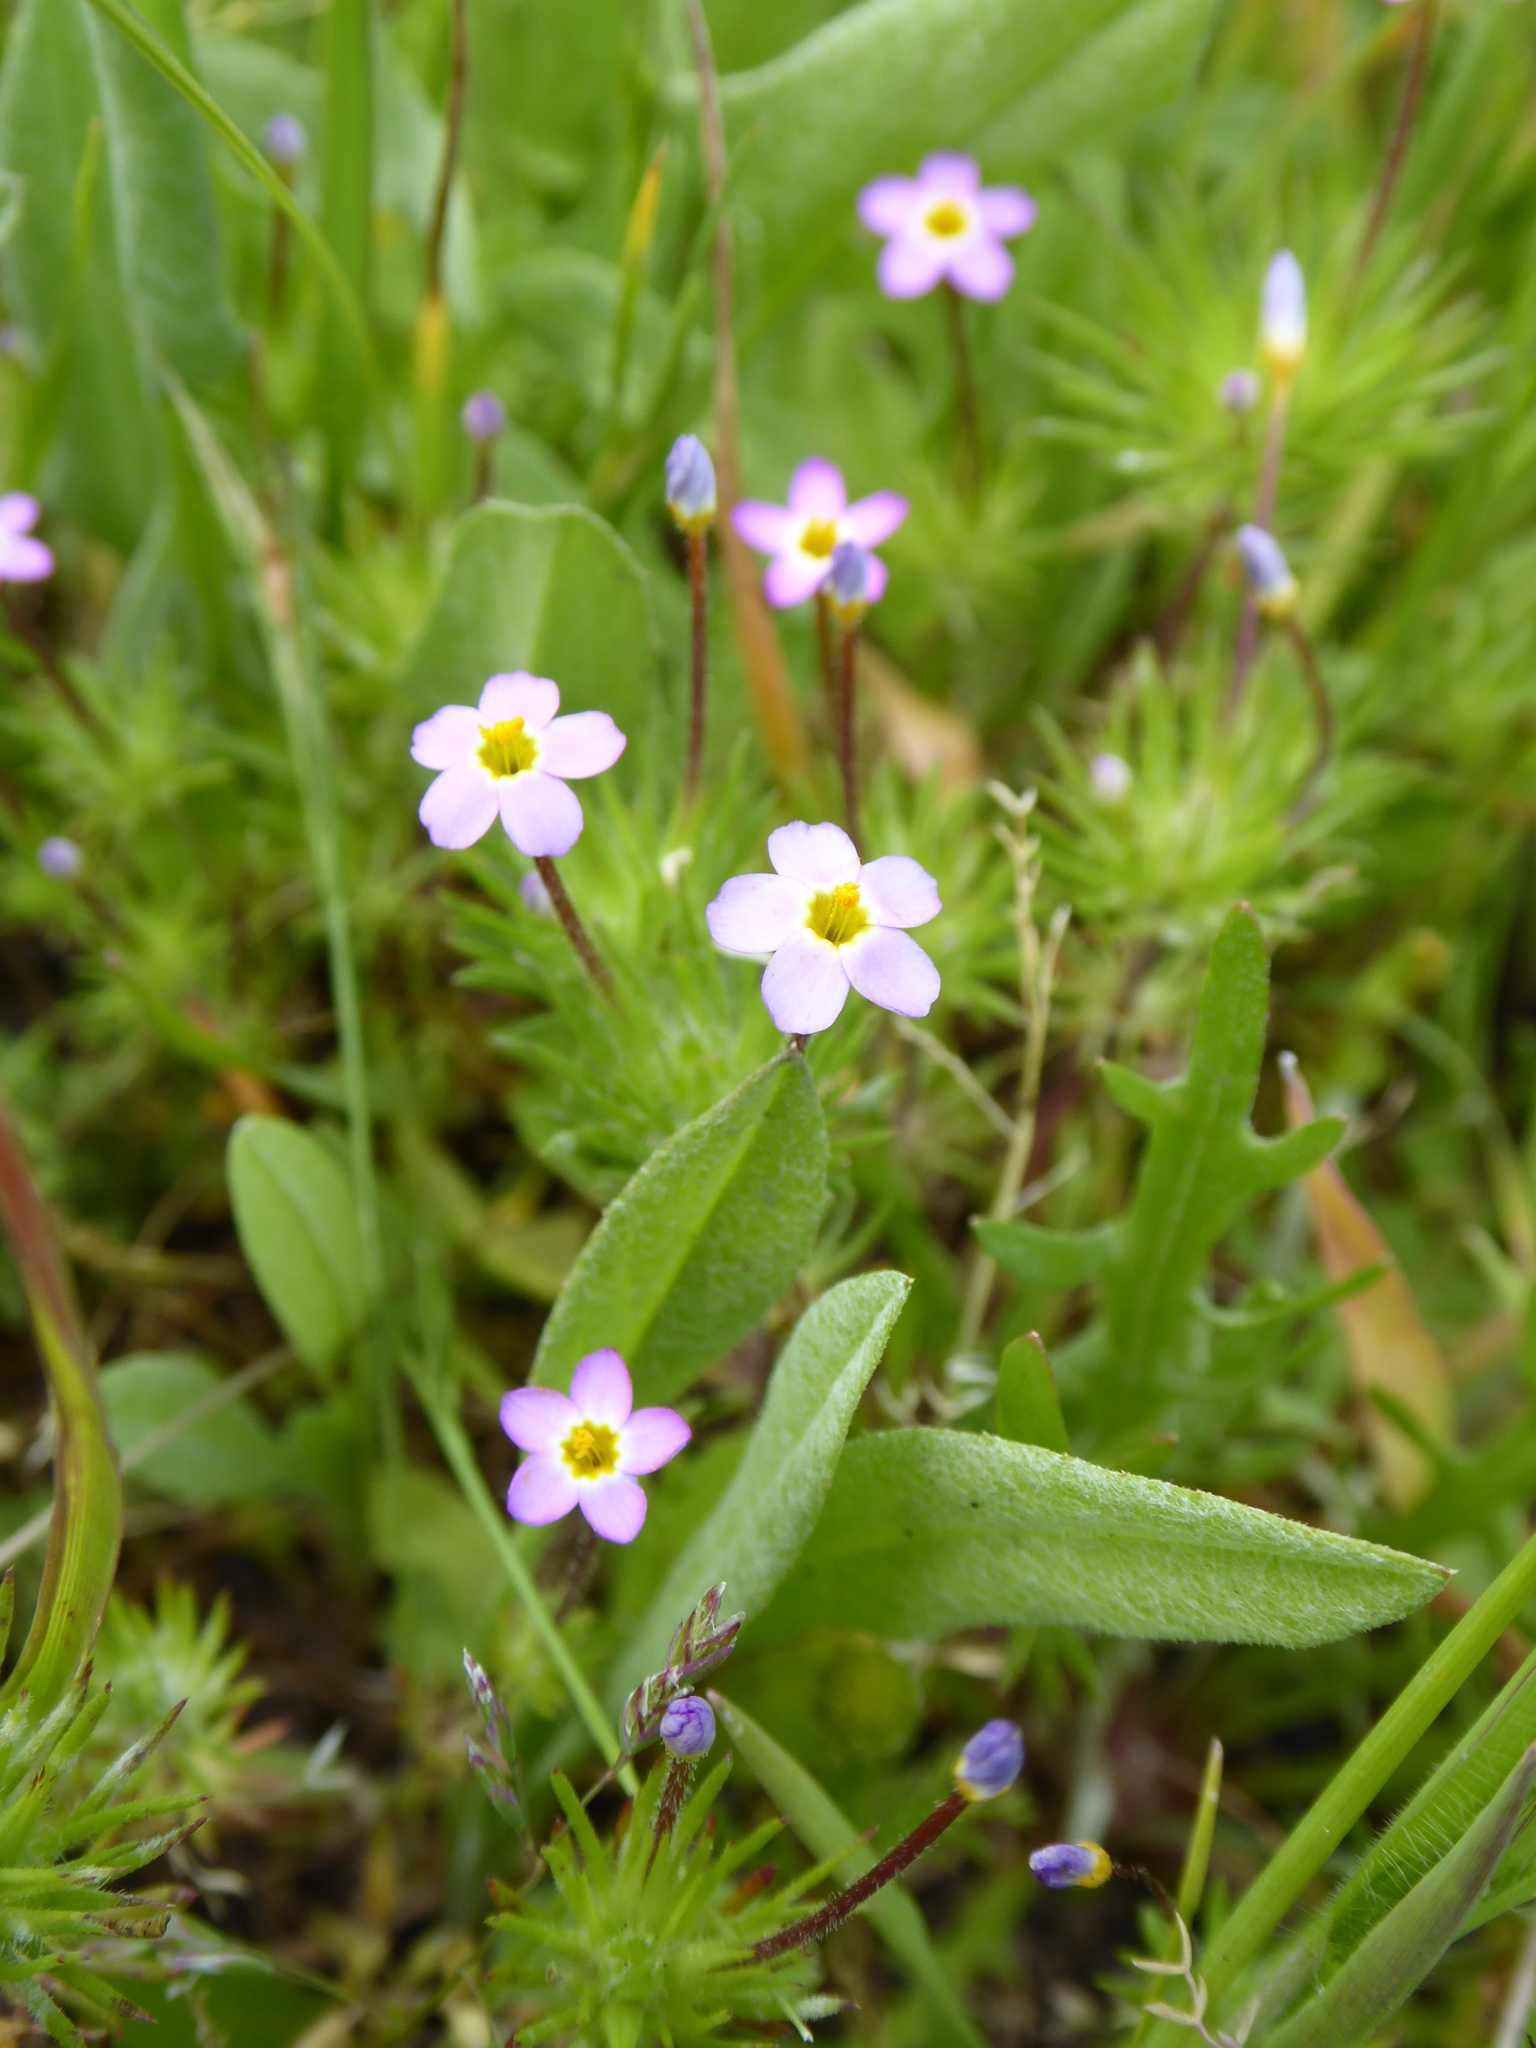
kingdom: Plantae
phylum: Tracheophyta
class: Magnoliopsida
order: Ericales
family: Polemoniaceae
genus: Leptosiphon
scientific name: Leptosiphon bicolor
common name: True babystars
